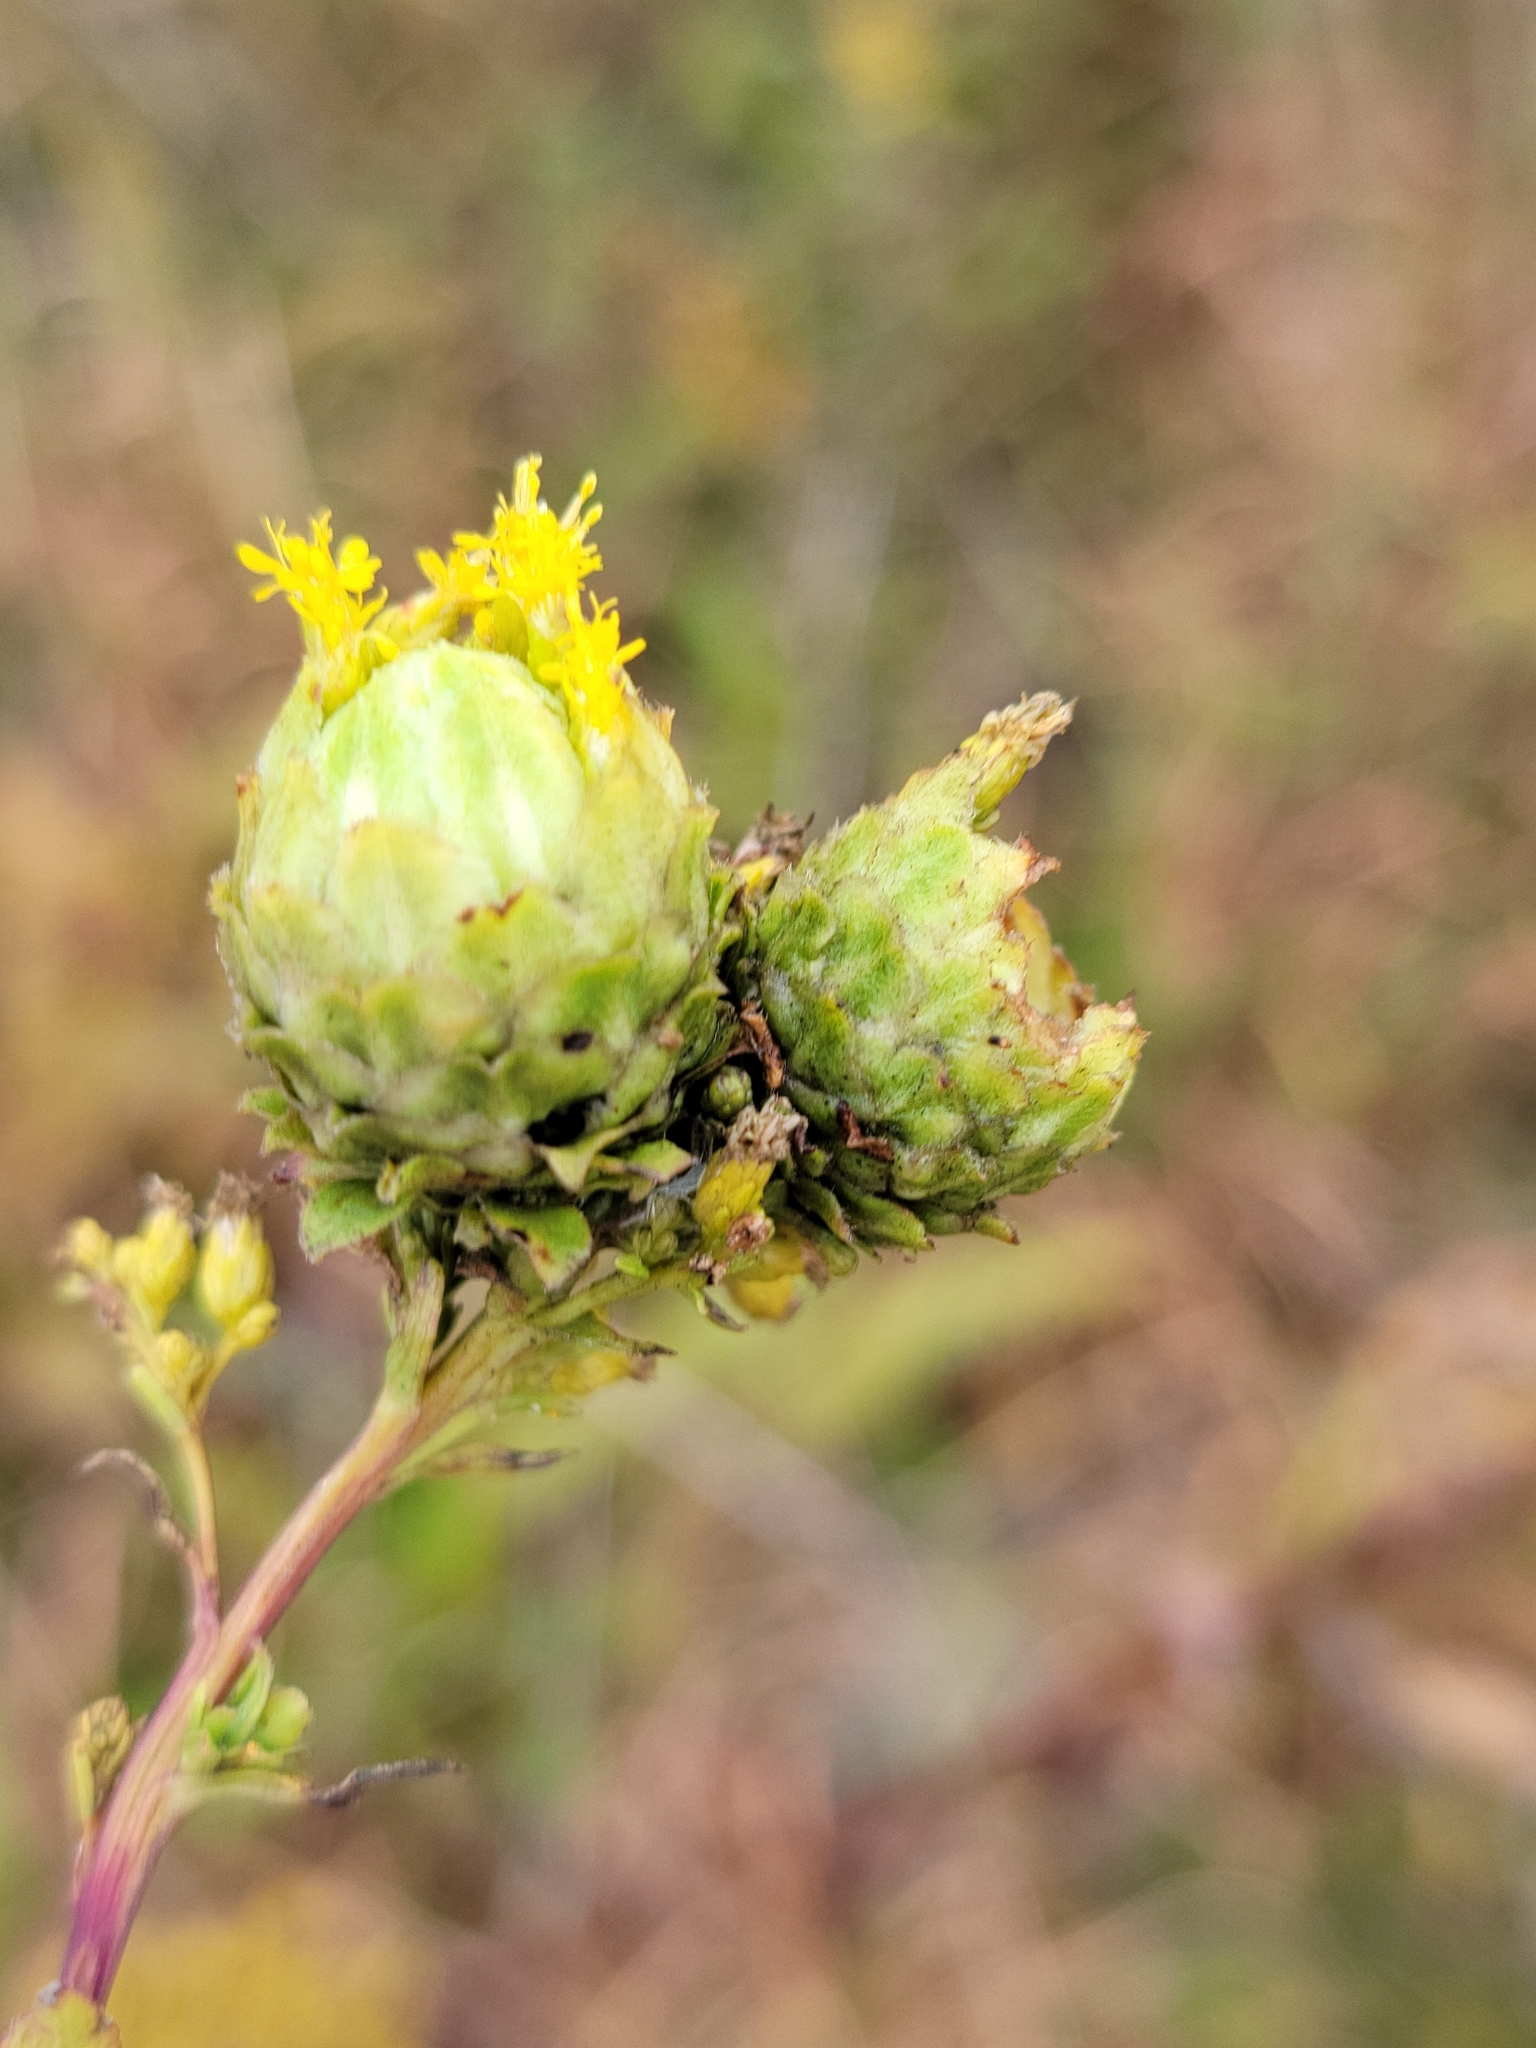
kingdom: Animalia
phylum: Arthropoda
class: Insecta
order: Diptera
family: Tephritidae
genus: Procecidochares
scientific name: Procecidochares atra
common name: Goldenrod brussels sprout gall fly
